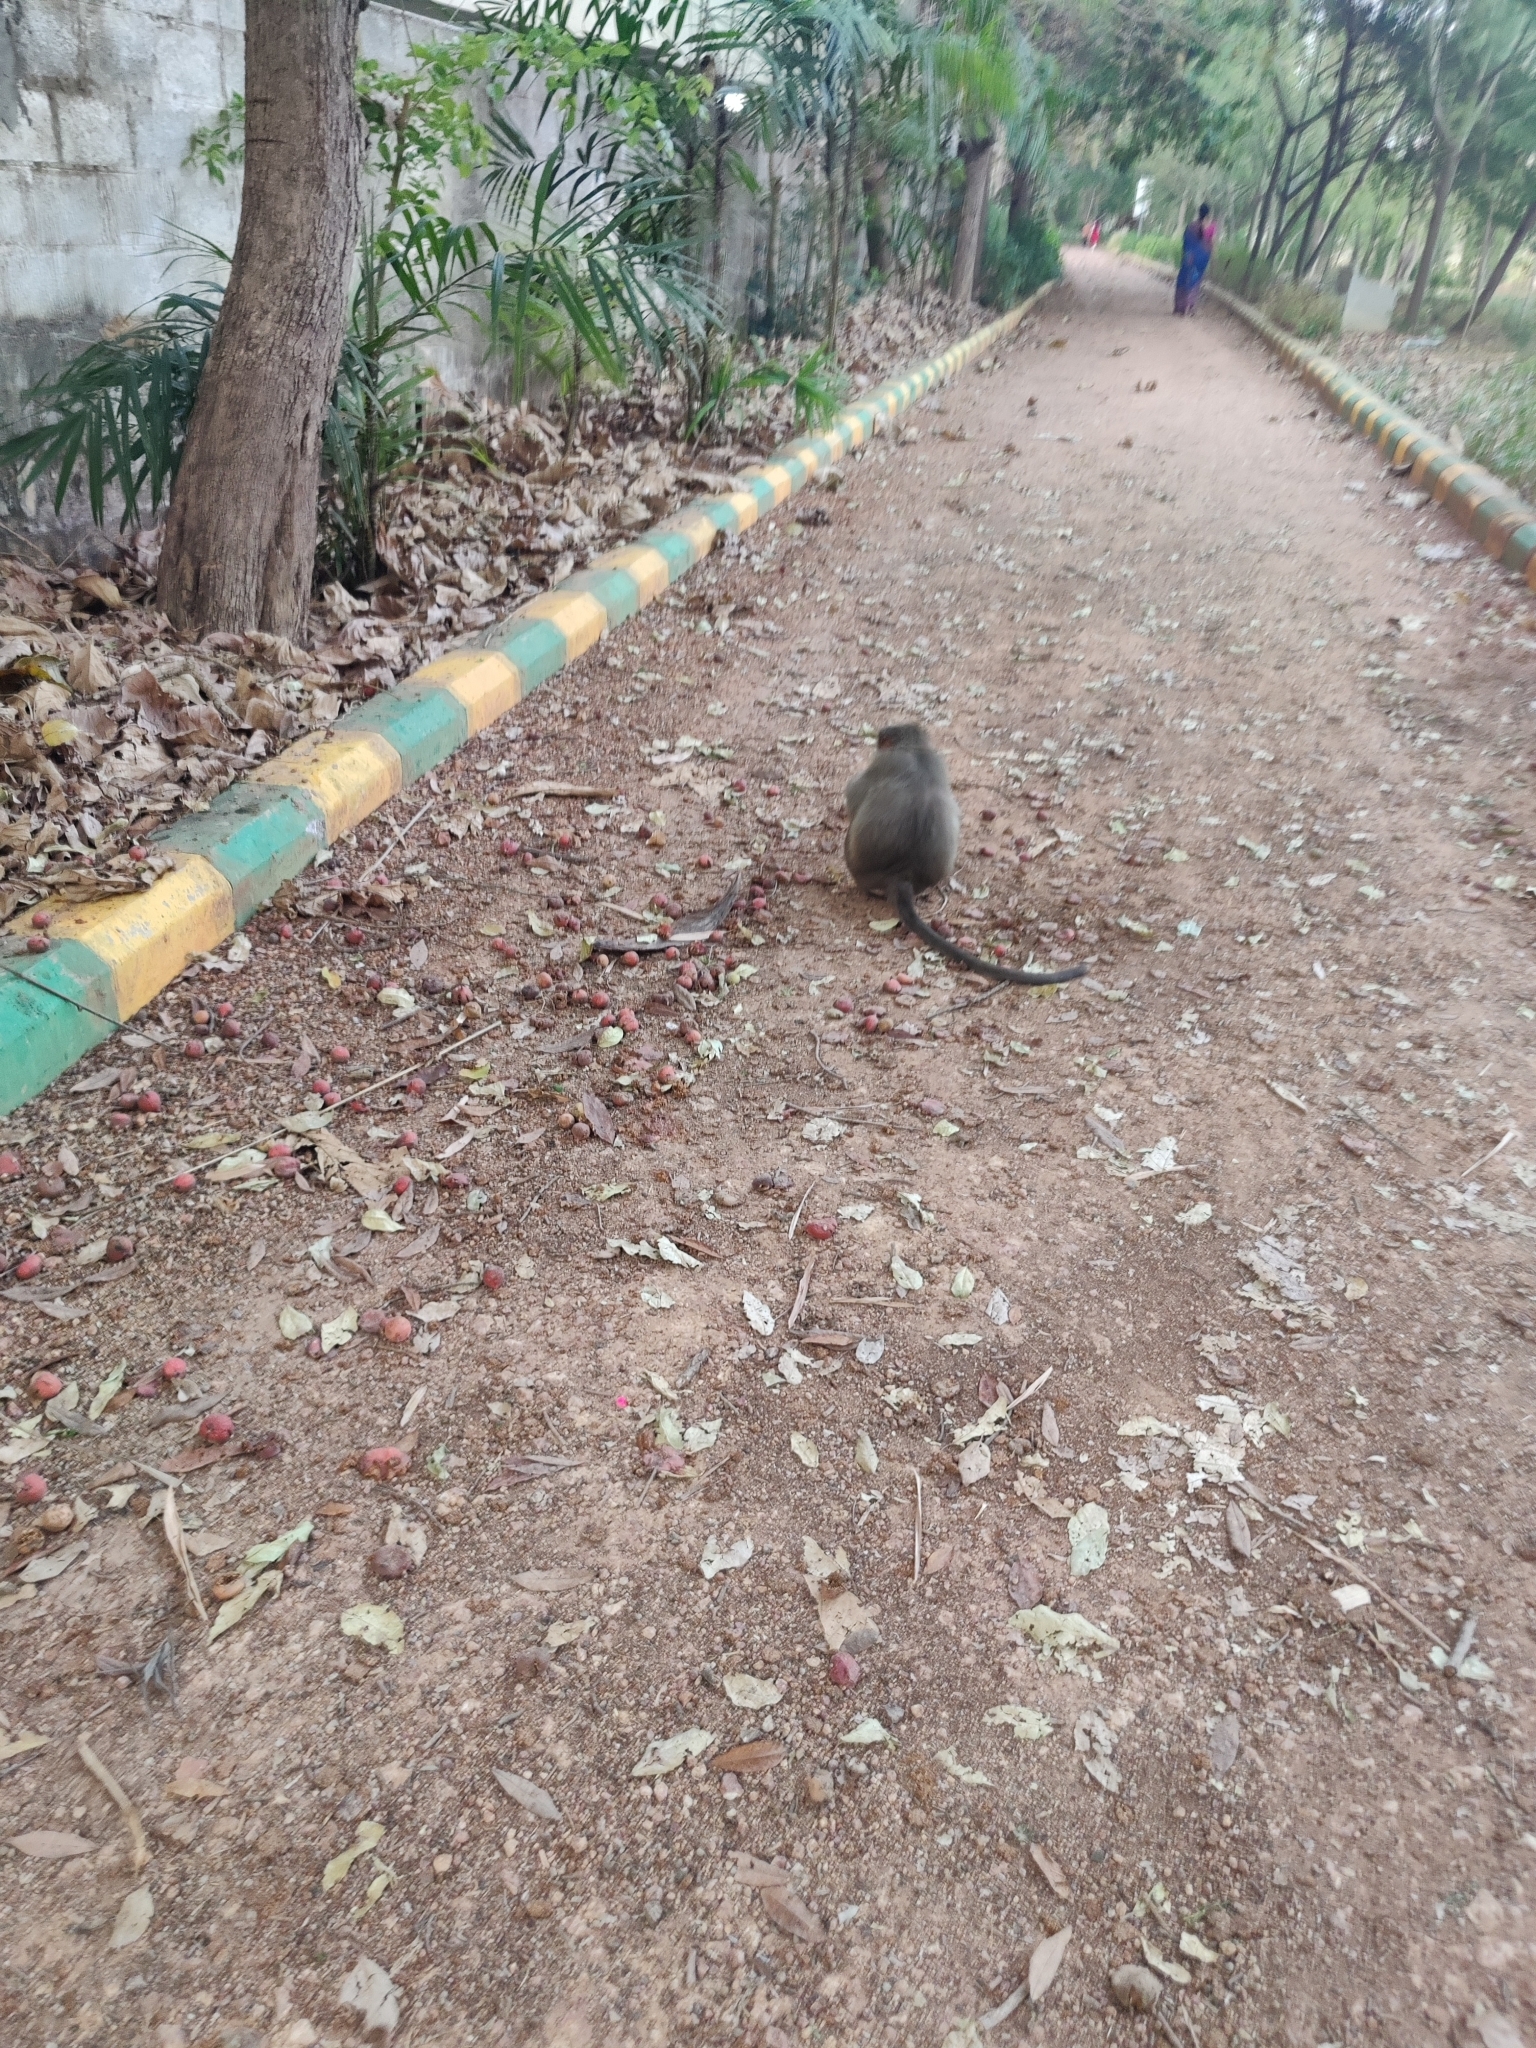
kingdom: Animalia
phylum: Chordata
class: Mammalia
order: Primates
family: Cercopithecidae
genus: Macaca
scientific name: Macaca radiata
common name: Bonnet macaque
